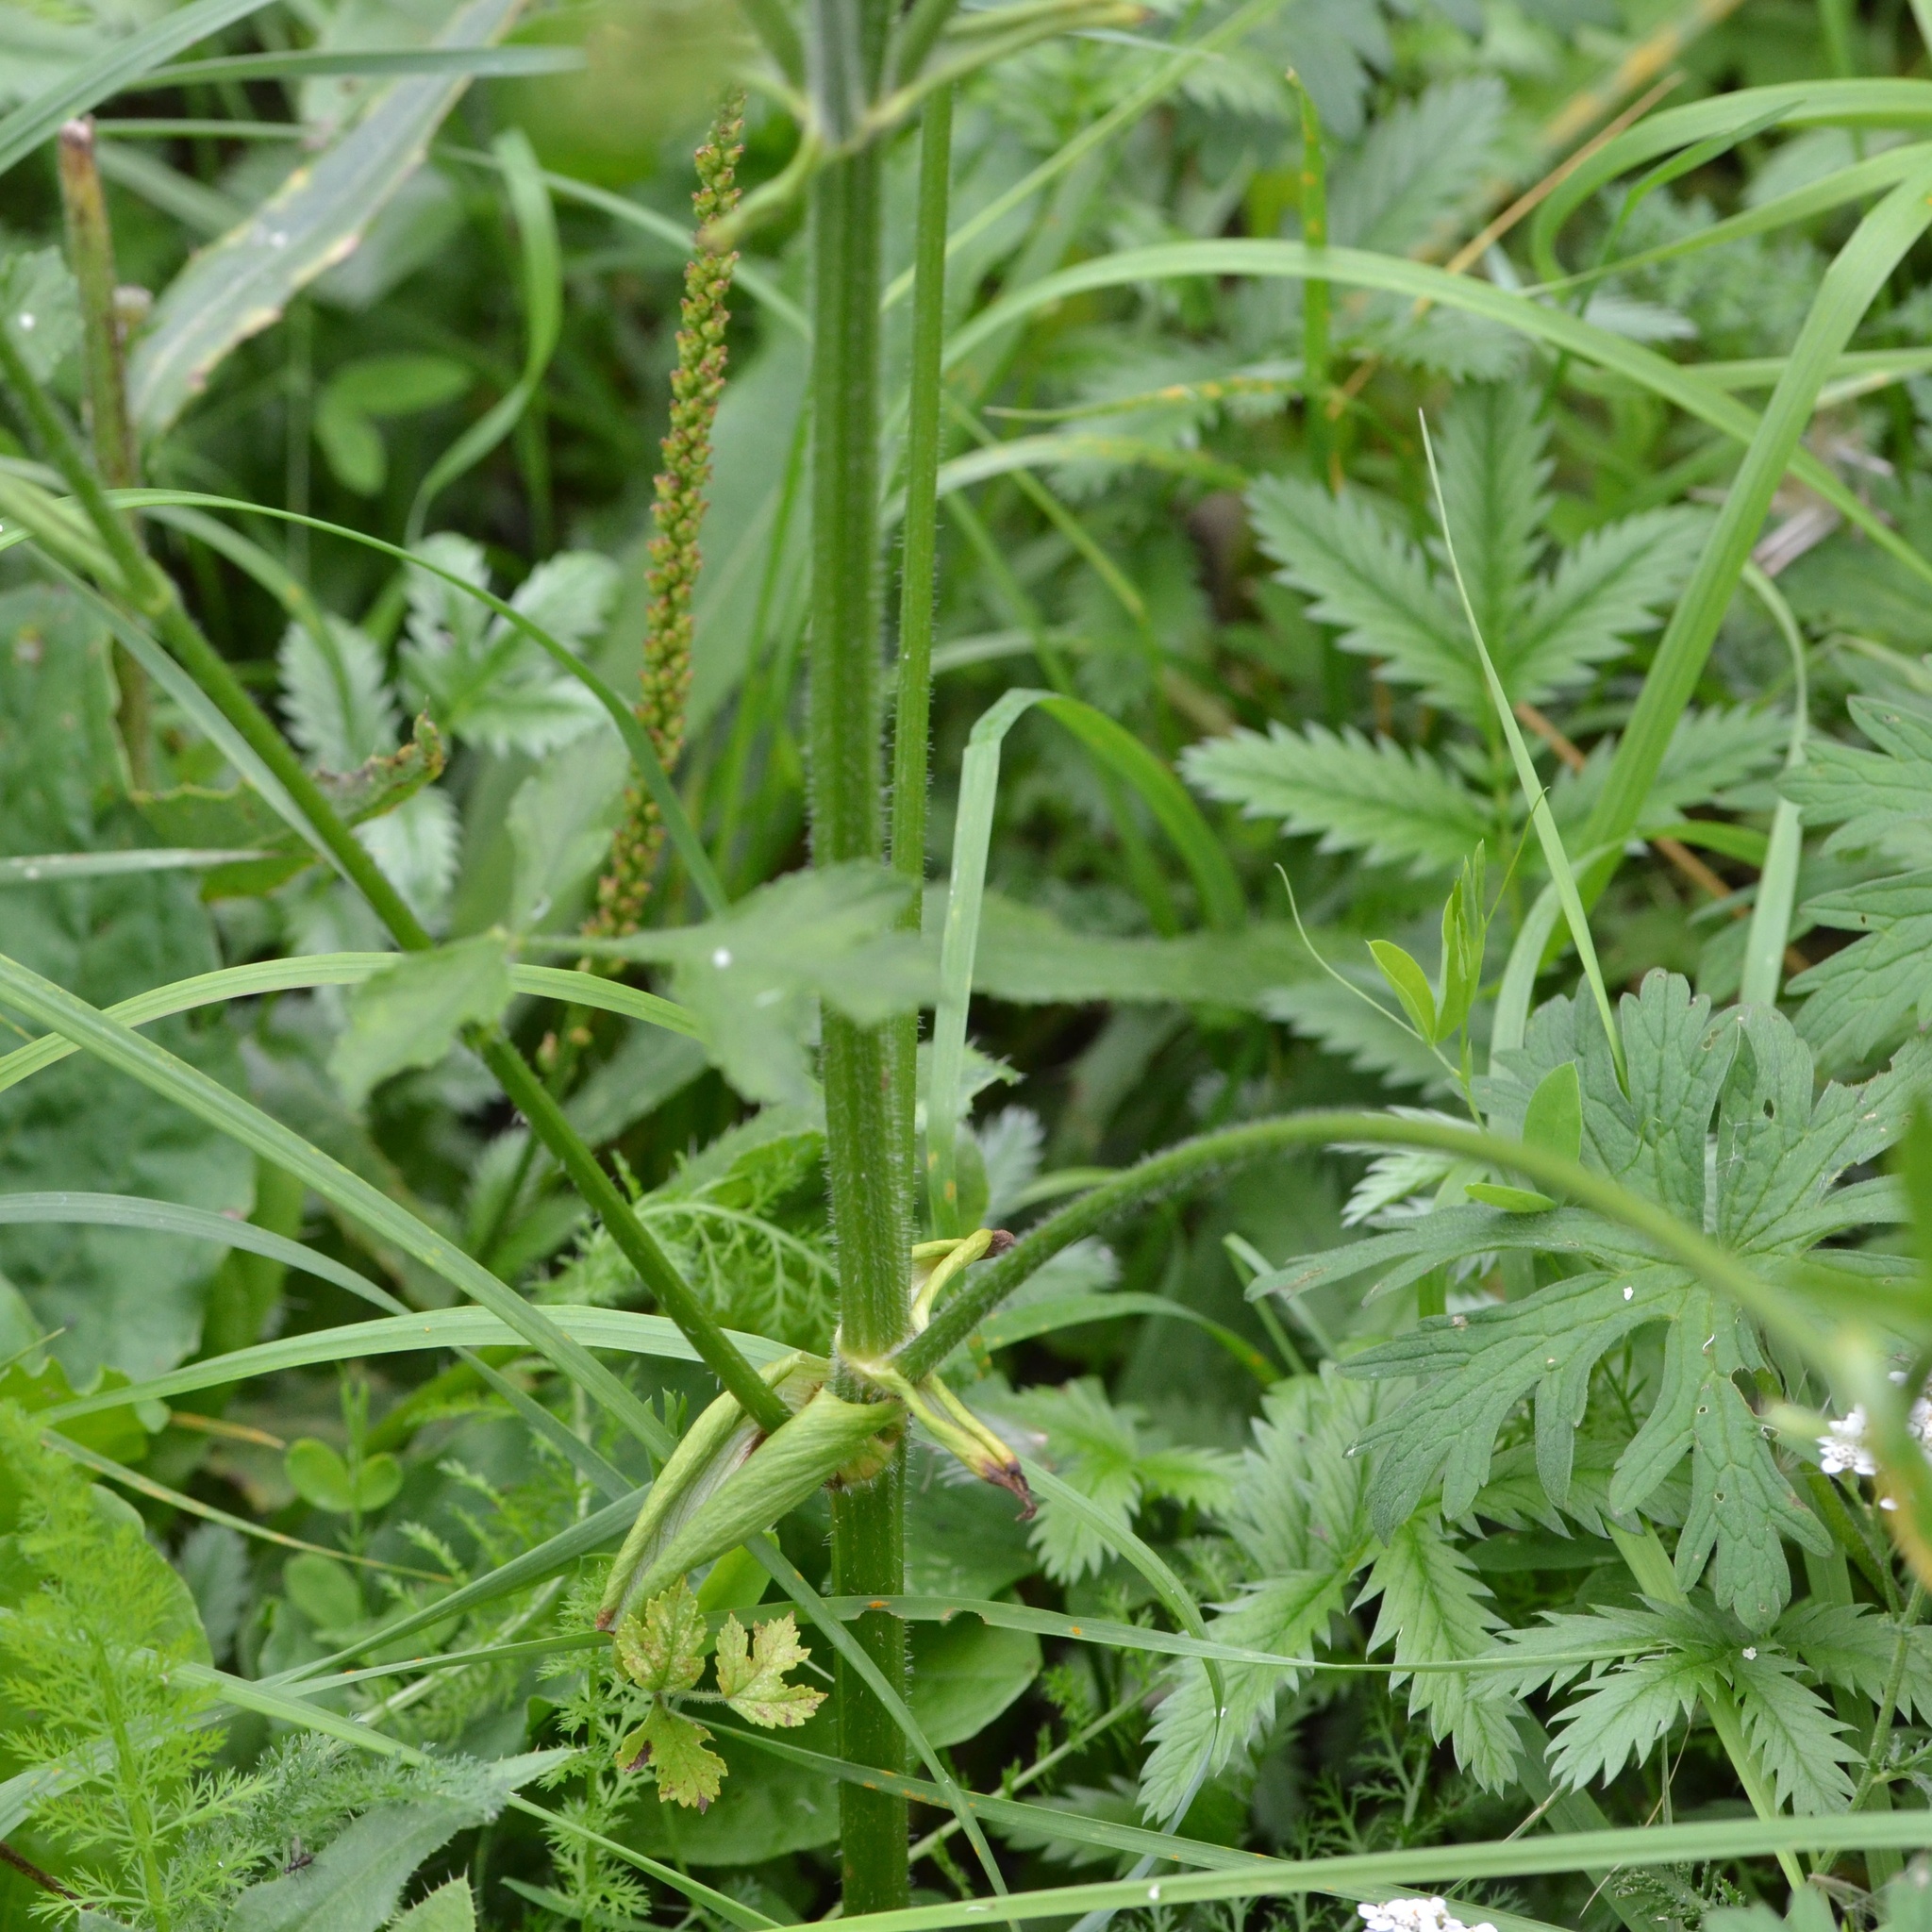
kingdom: Plantae
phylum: Tracheophyta
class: Magnoliopsida
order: Apiales
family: Apiaceae
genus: Heracleum
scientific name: Heracleum sphondylium
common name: Hogweed
